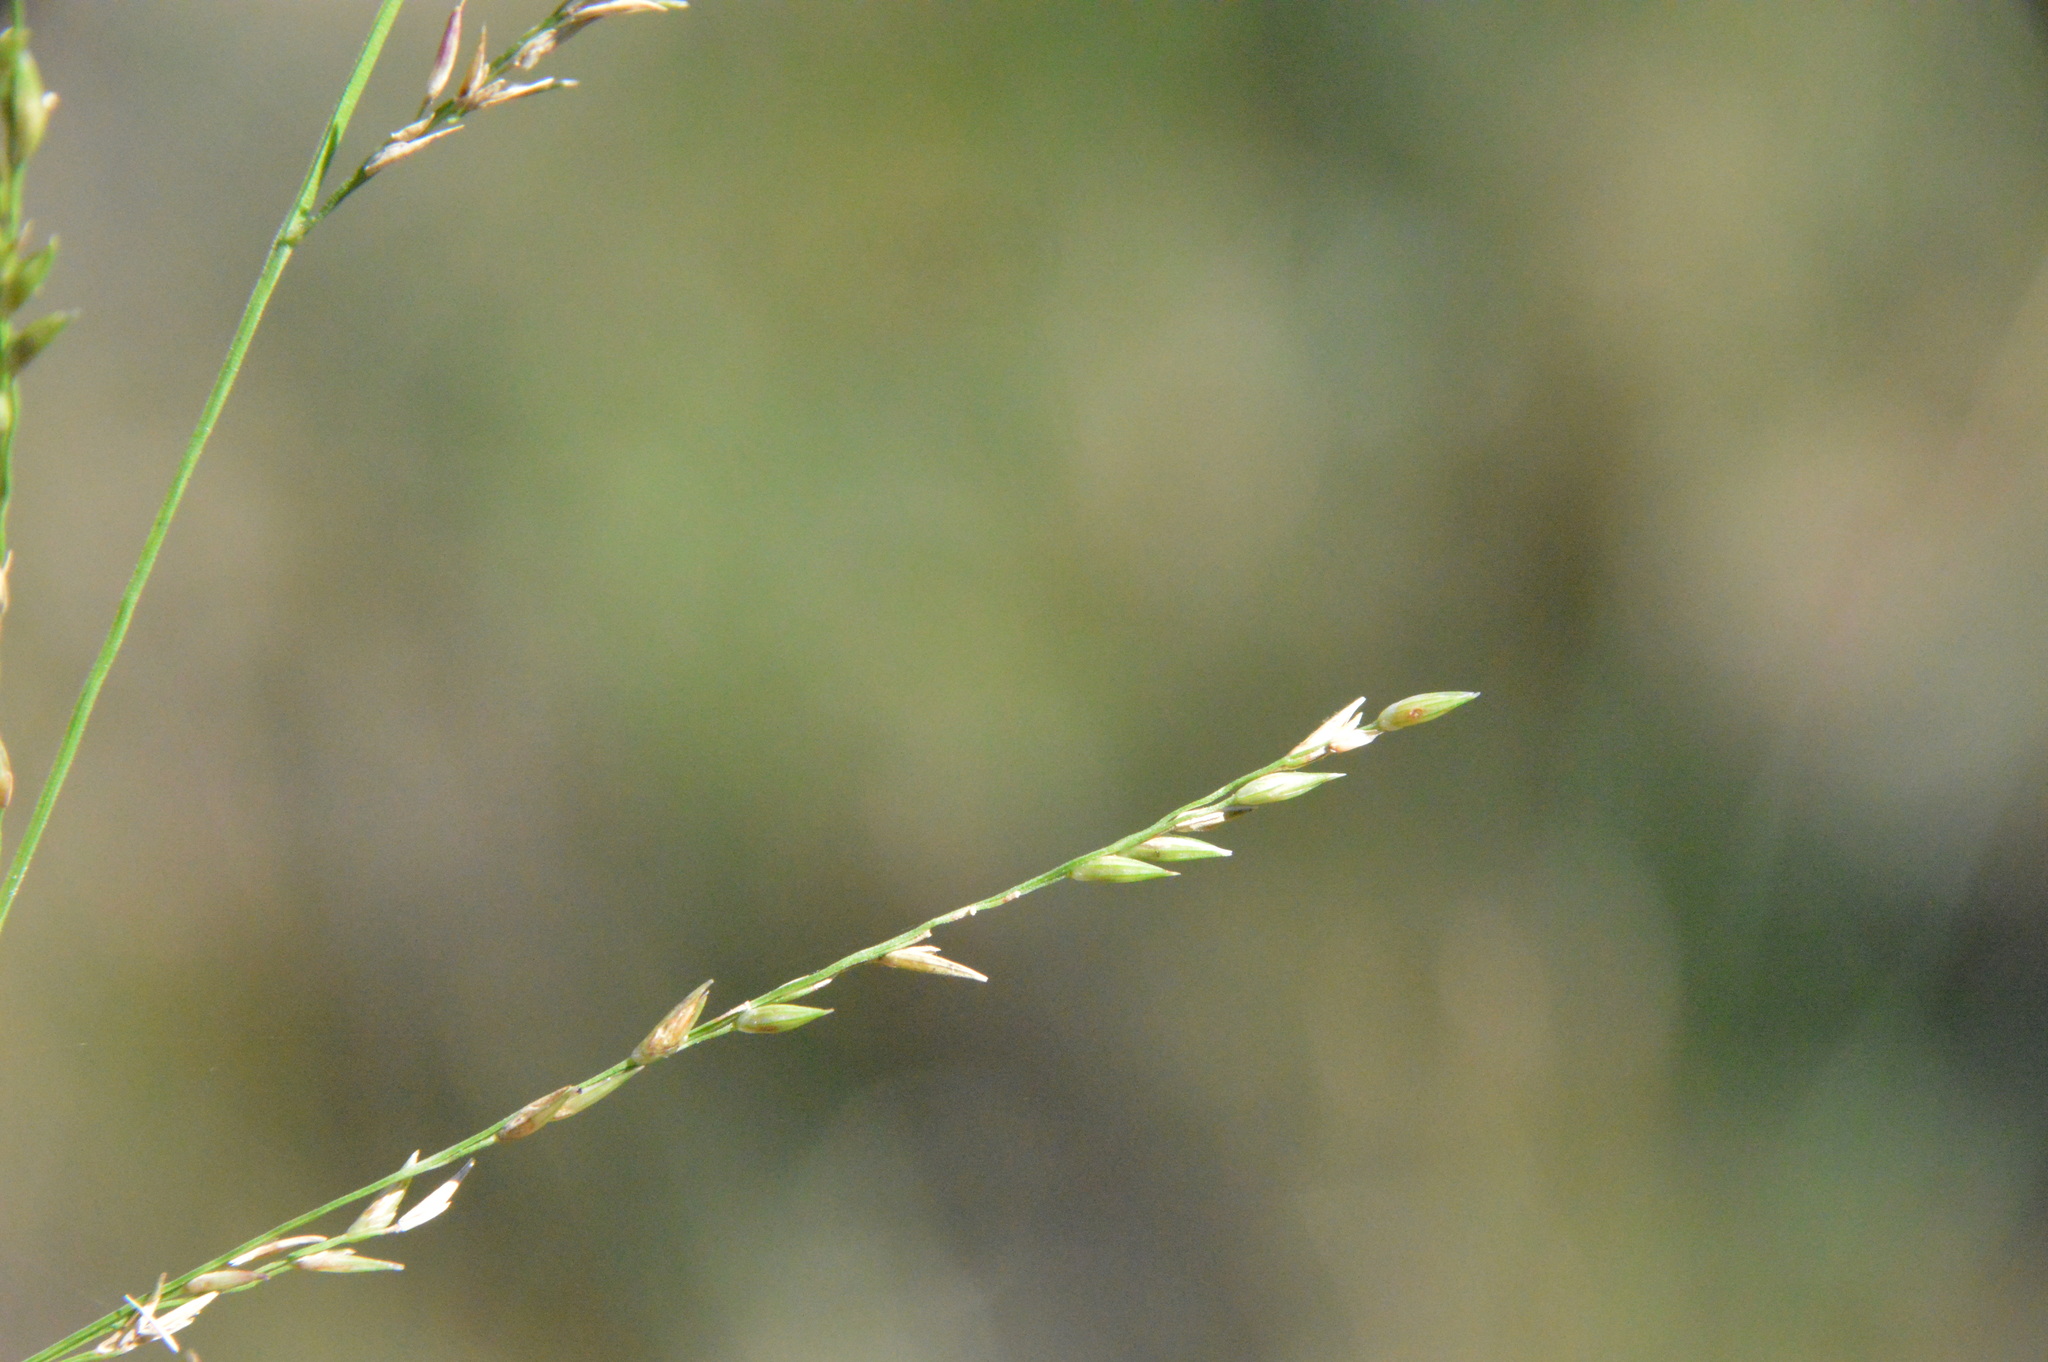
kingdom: Plantae
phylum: Tracheophyta
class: Liliopsida
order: Poales
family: Poaceae
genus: Coleataenia
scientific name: Coleataenia anceps
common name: Beaked panic grass
